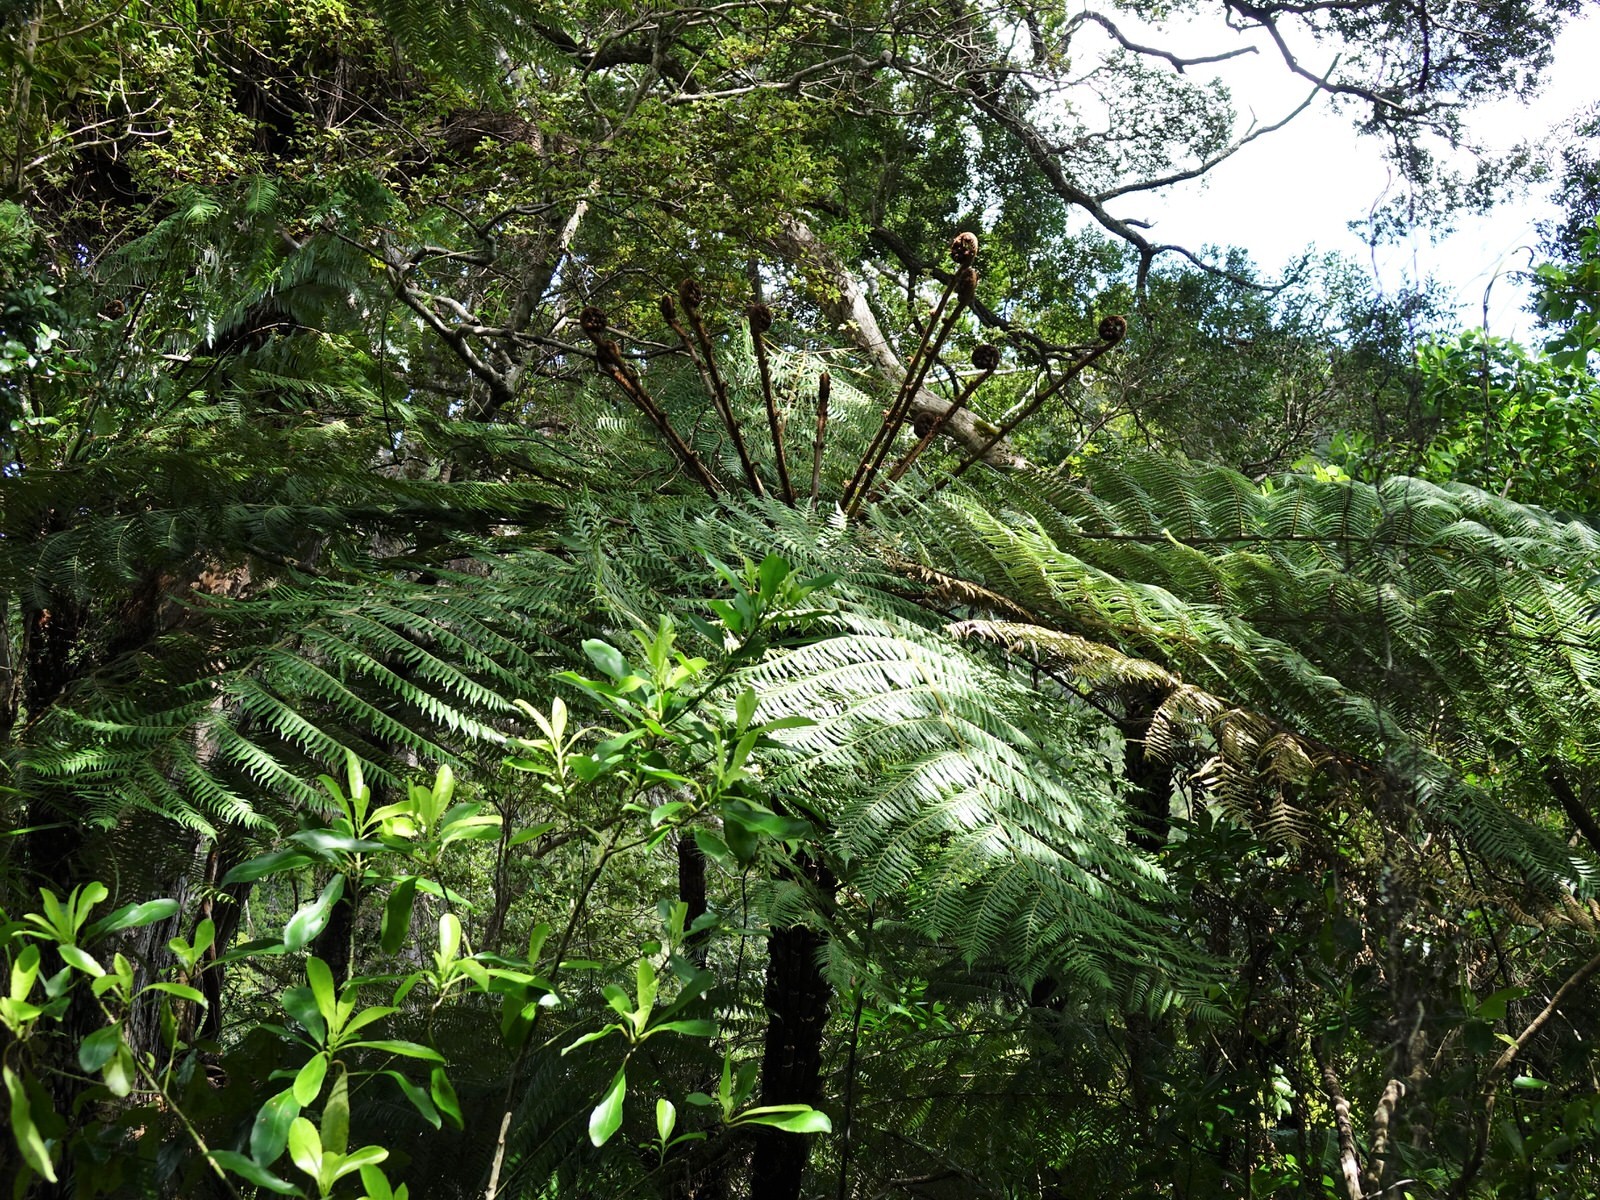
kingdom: Plantae
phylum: Tracheophyta
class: Polypodiopsida
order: Cyatheales
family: Cyatheaceae
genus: Alsophila
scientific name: Alsophila dealbata
